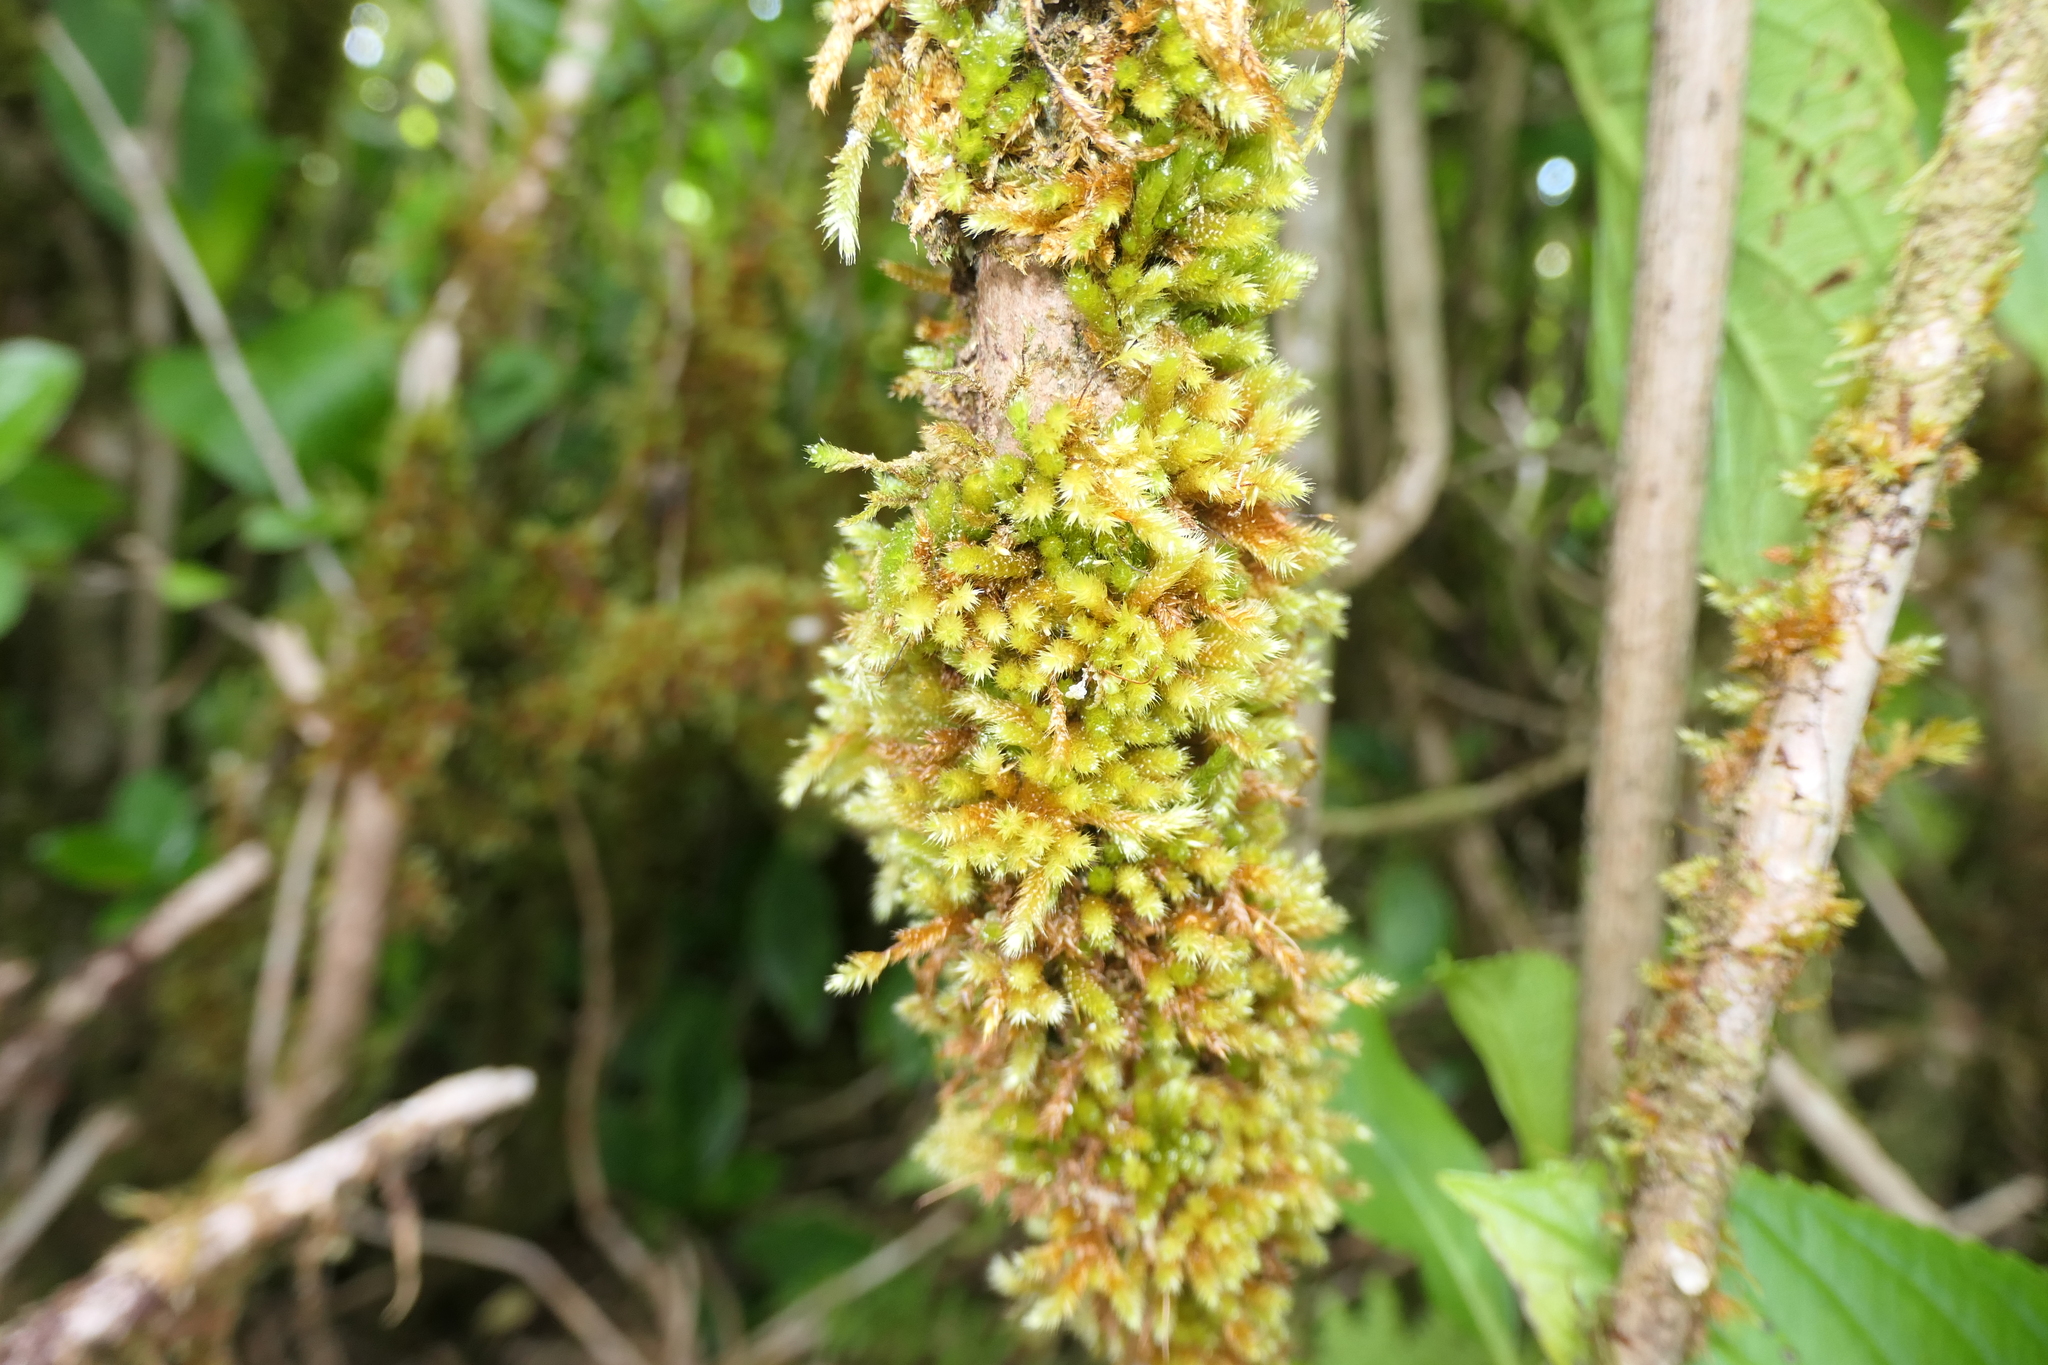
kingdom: Plantae
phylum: Bryophyta
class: Bryopsida
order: Hypnales
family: Myuriaceae
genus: Myurium
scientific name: Myurium hochstetteri
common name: Hare-tail moss
